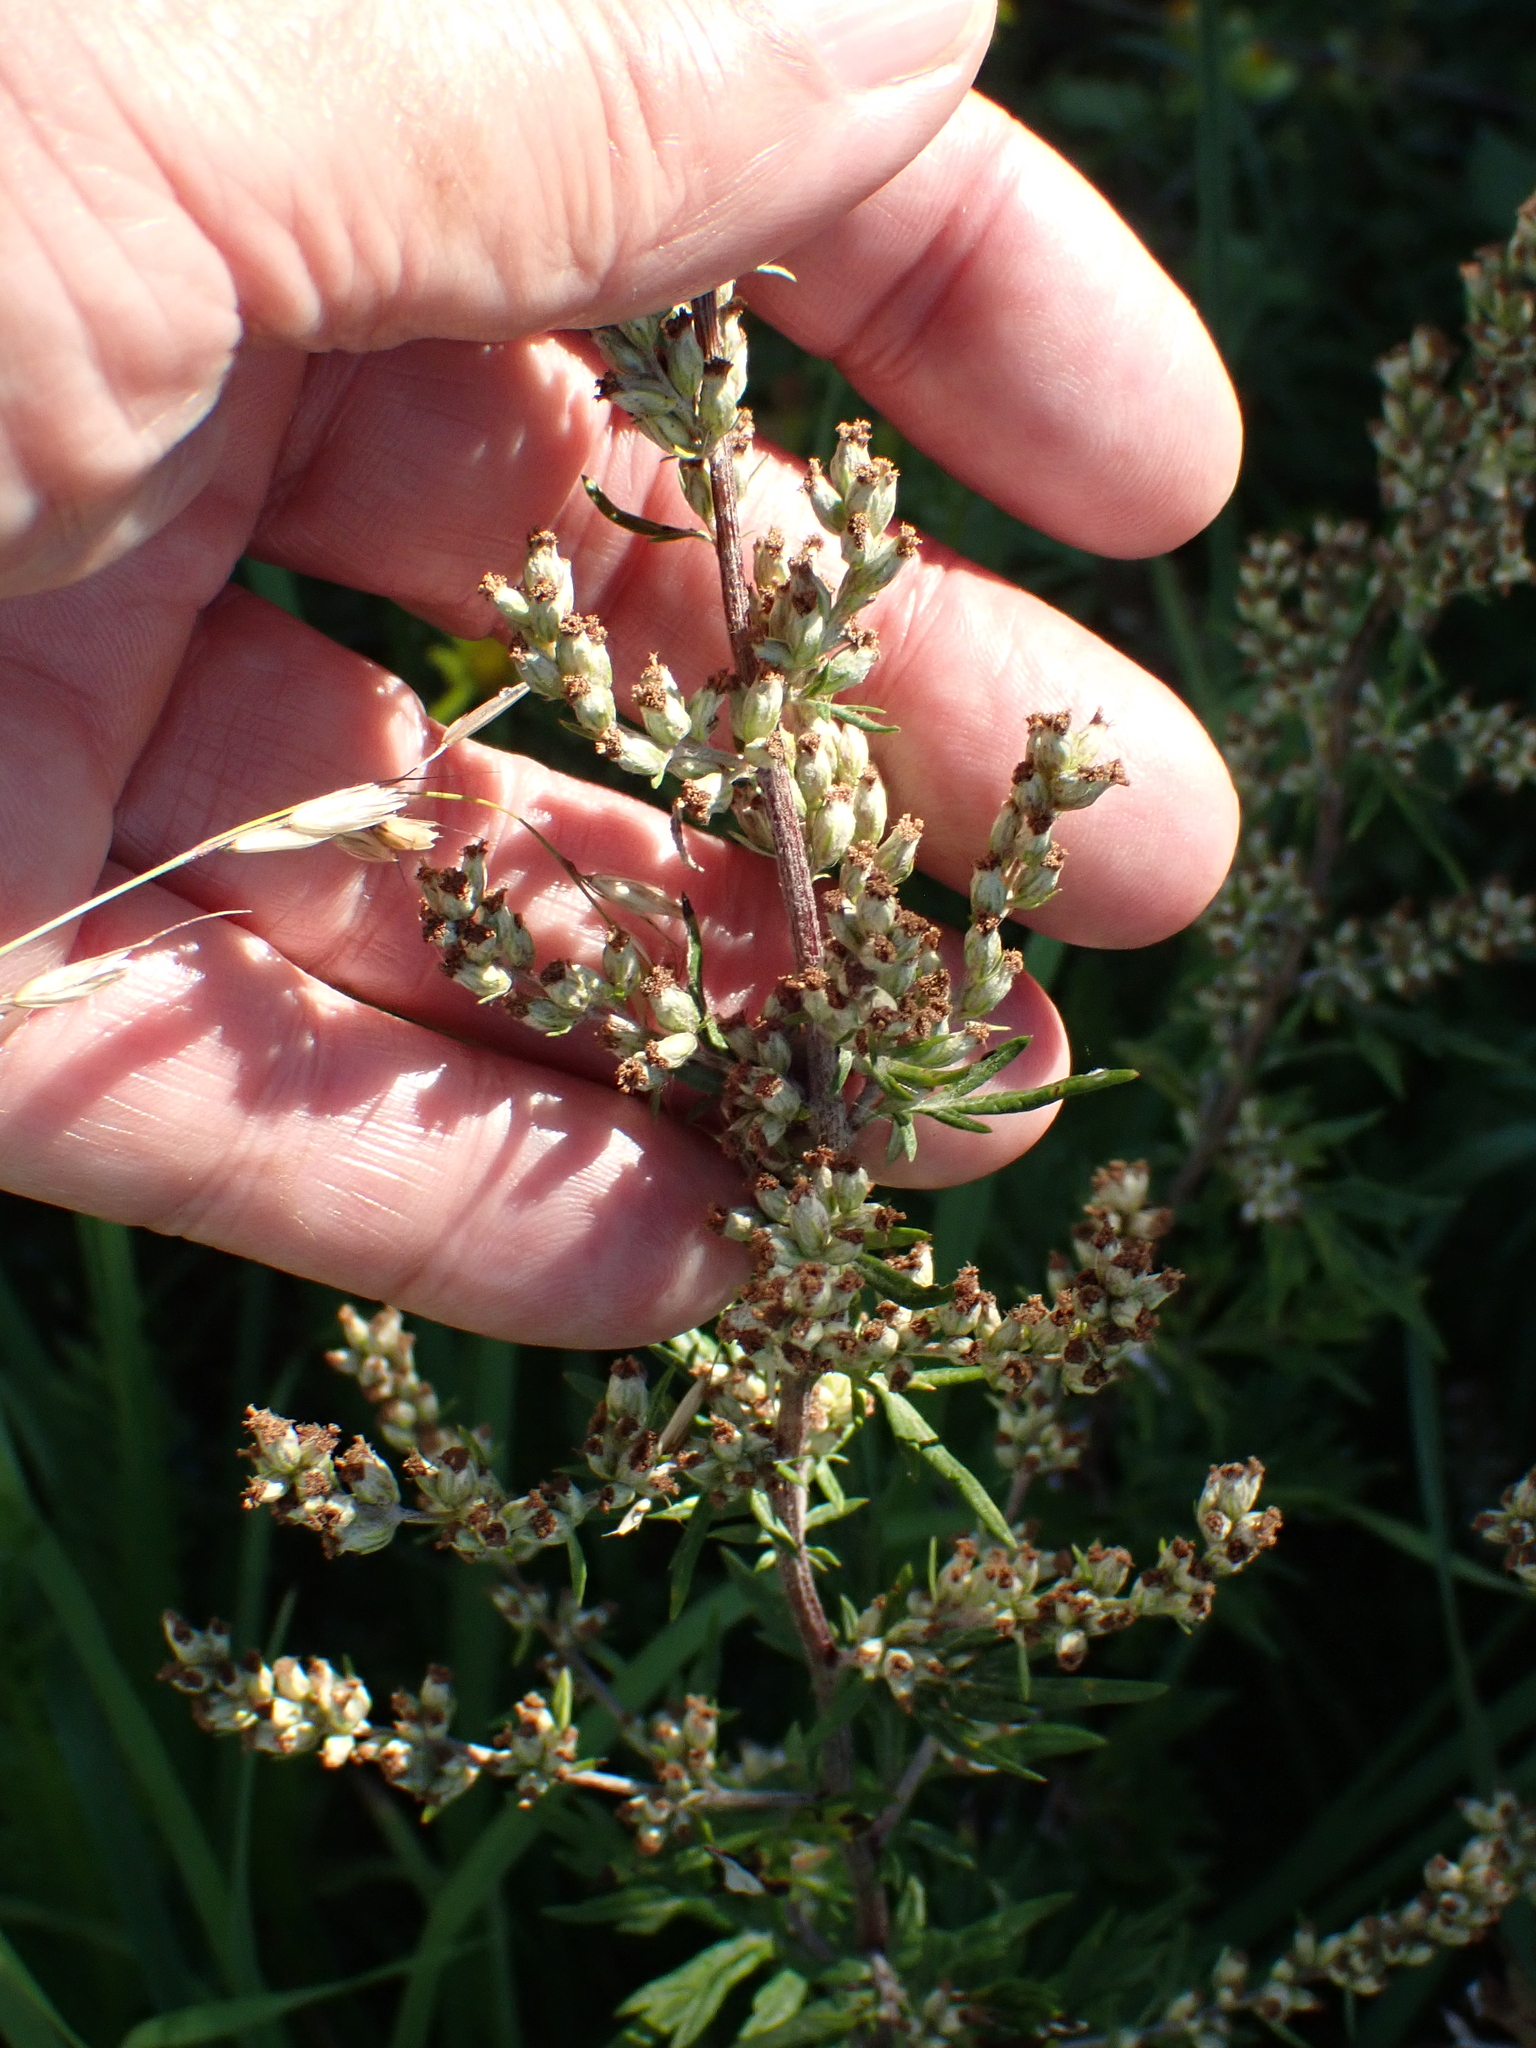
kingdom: Plantae
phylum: Tracheophyta
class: Magnoliopsida
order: Asterales
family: Asteraceae
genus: Artemisia
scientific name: Artemisia vulgaris
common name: Mugwort
